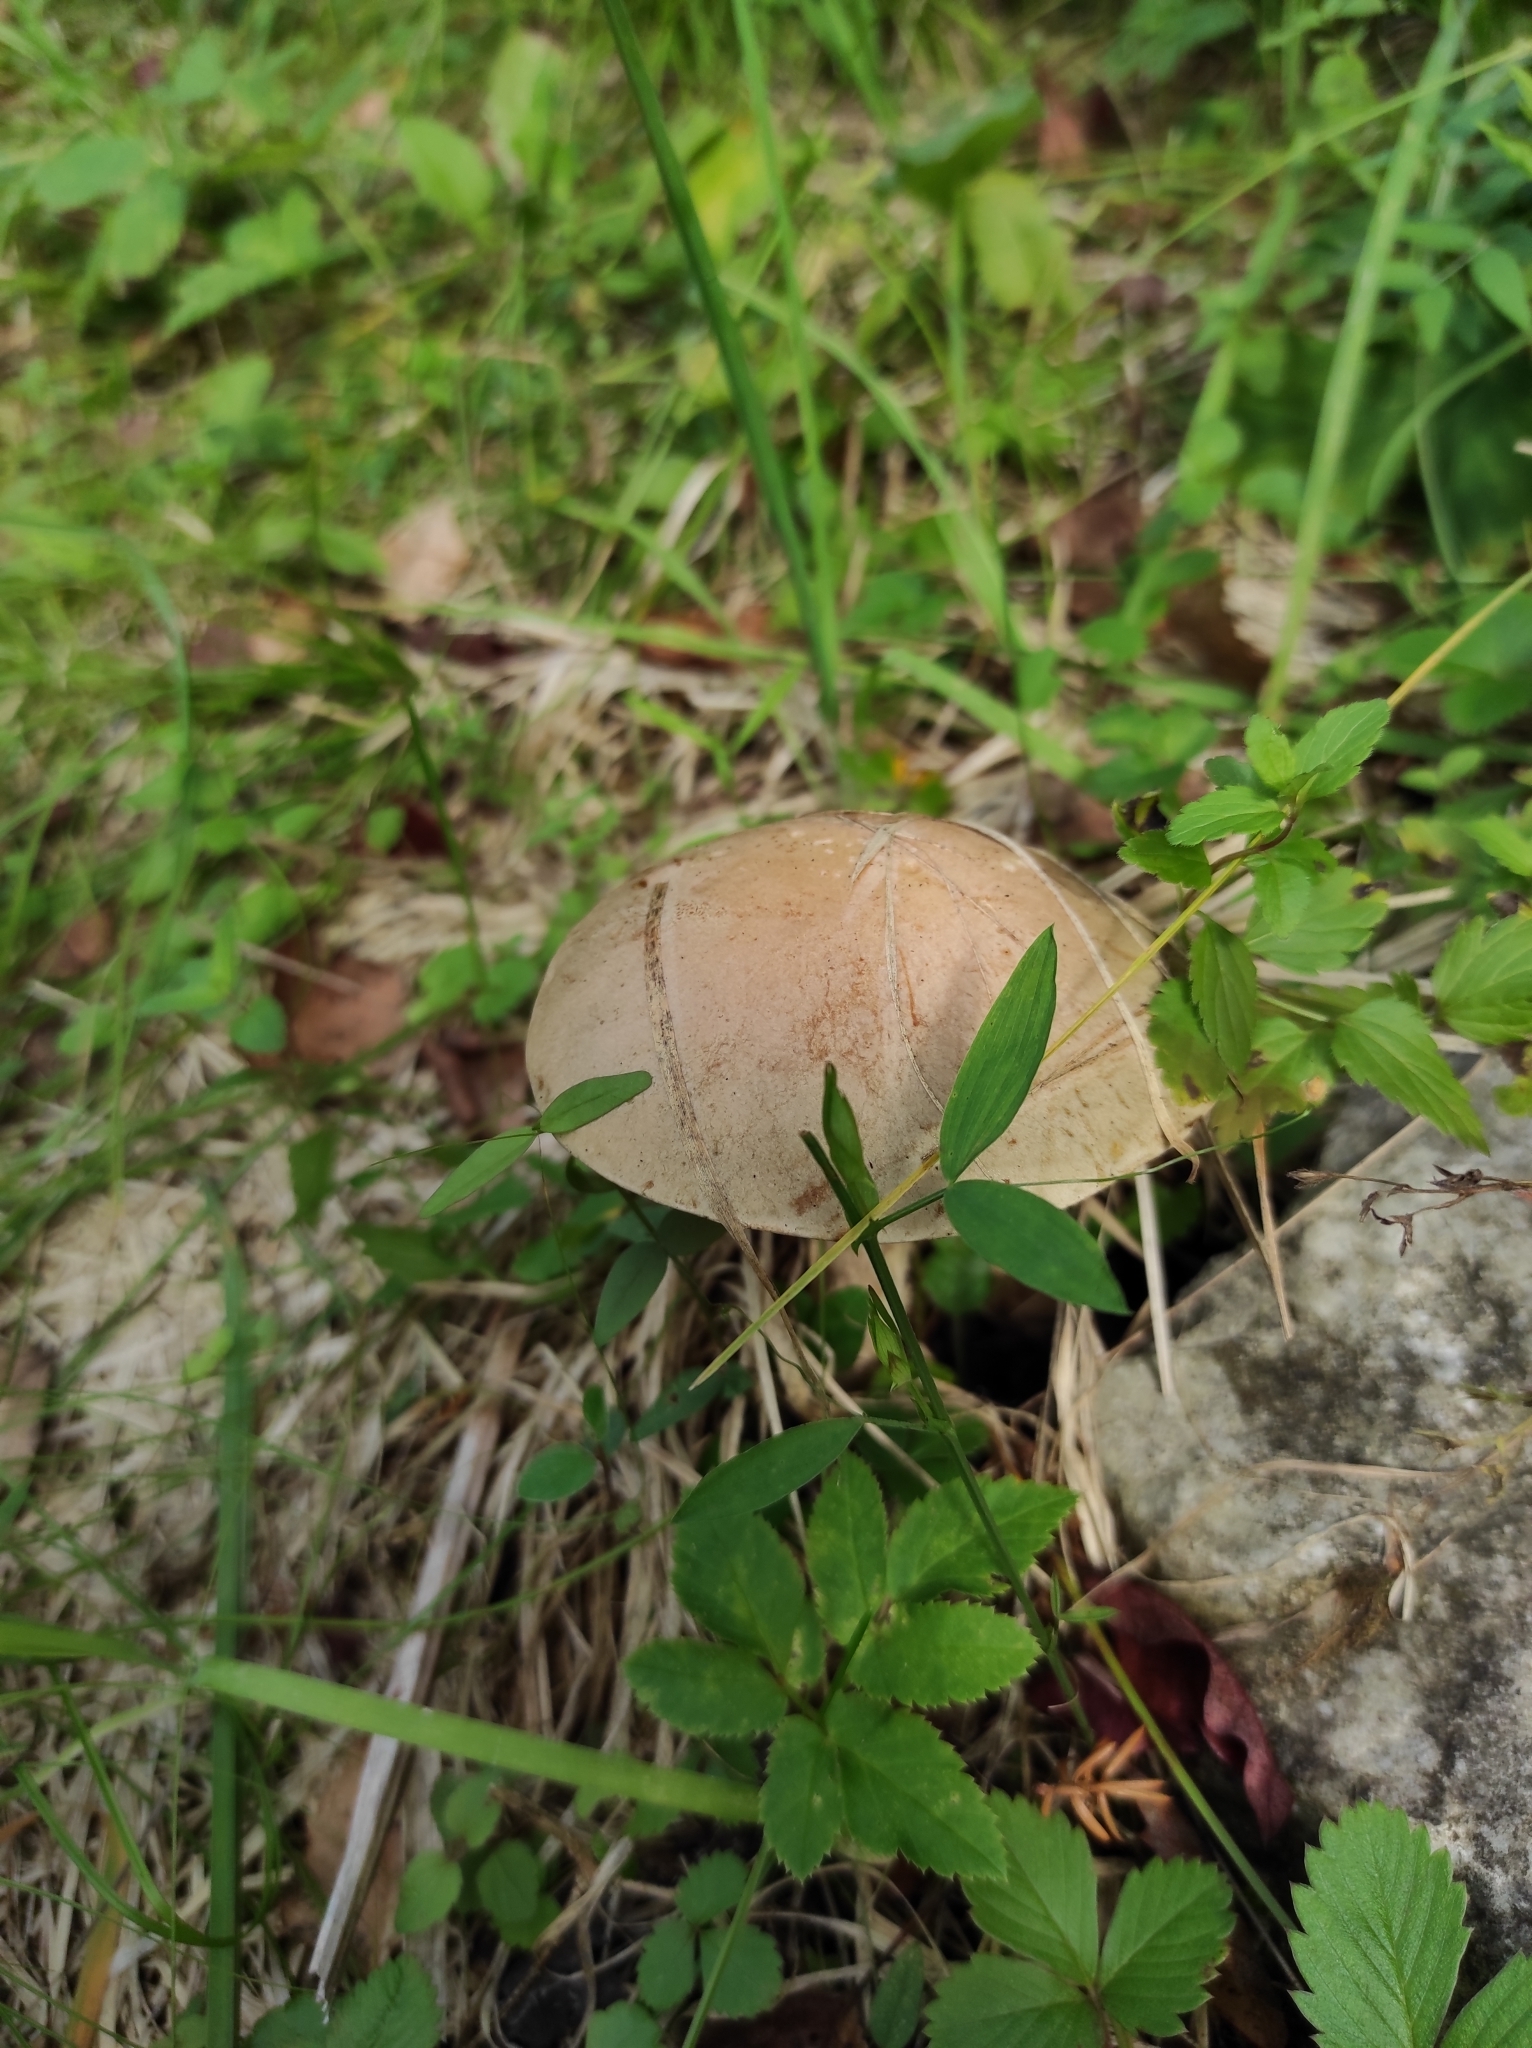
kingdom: Fungi
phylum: Basidiomycota
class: Agaricomycetes
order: Boletales
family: Boletaceae
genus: Leccinum
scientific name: Leccinum scabrum
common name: Blushing bolete
